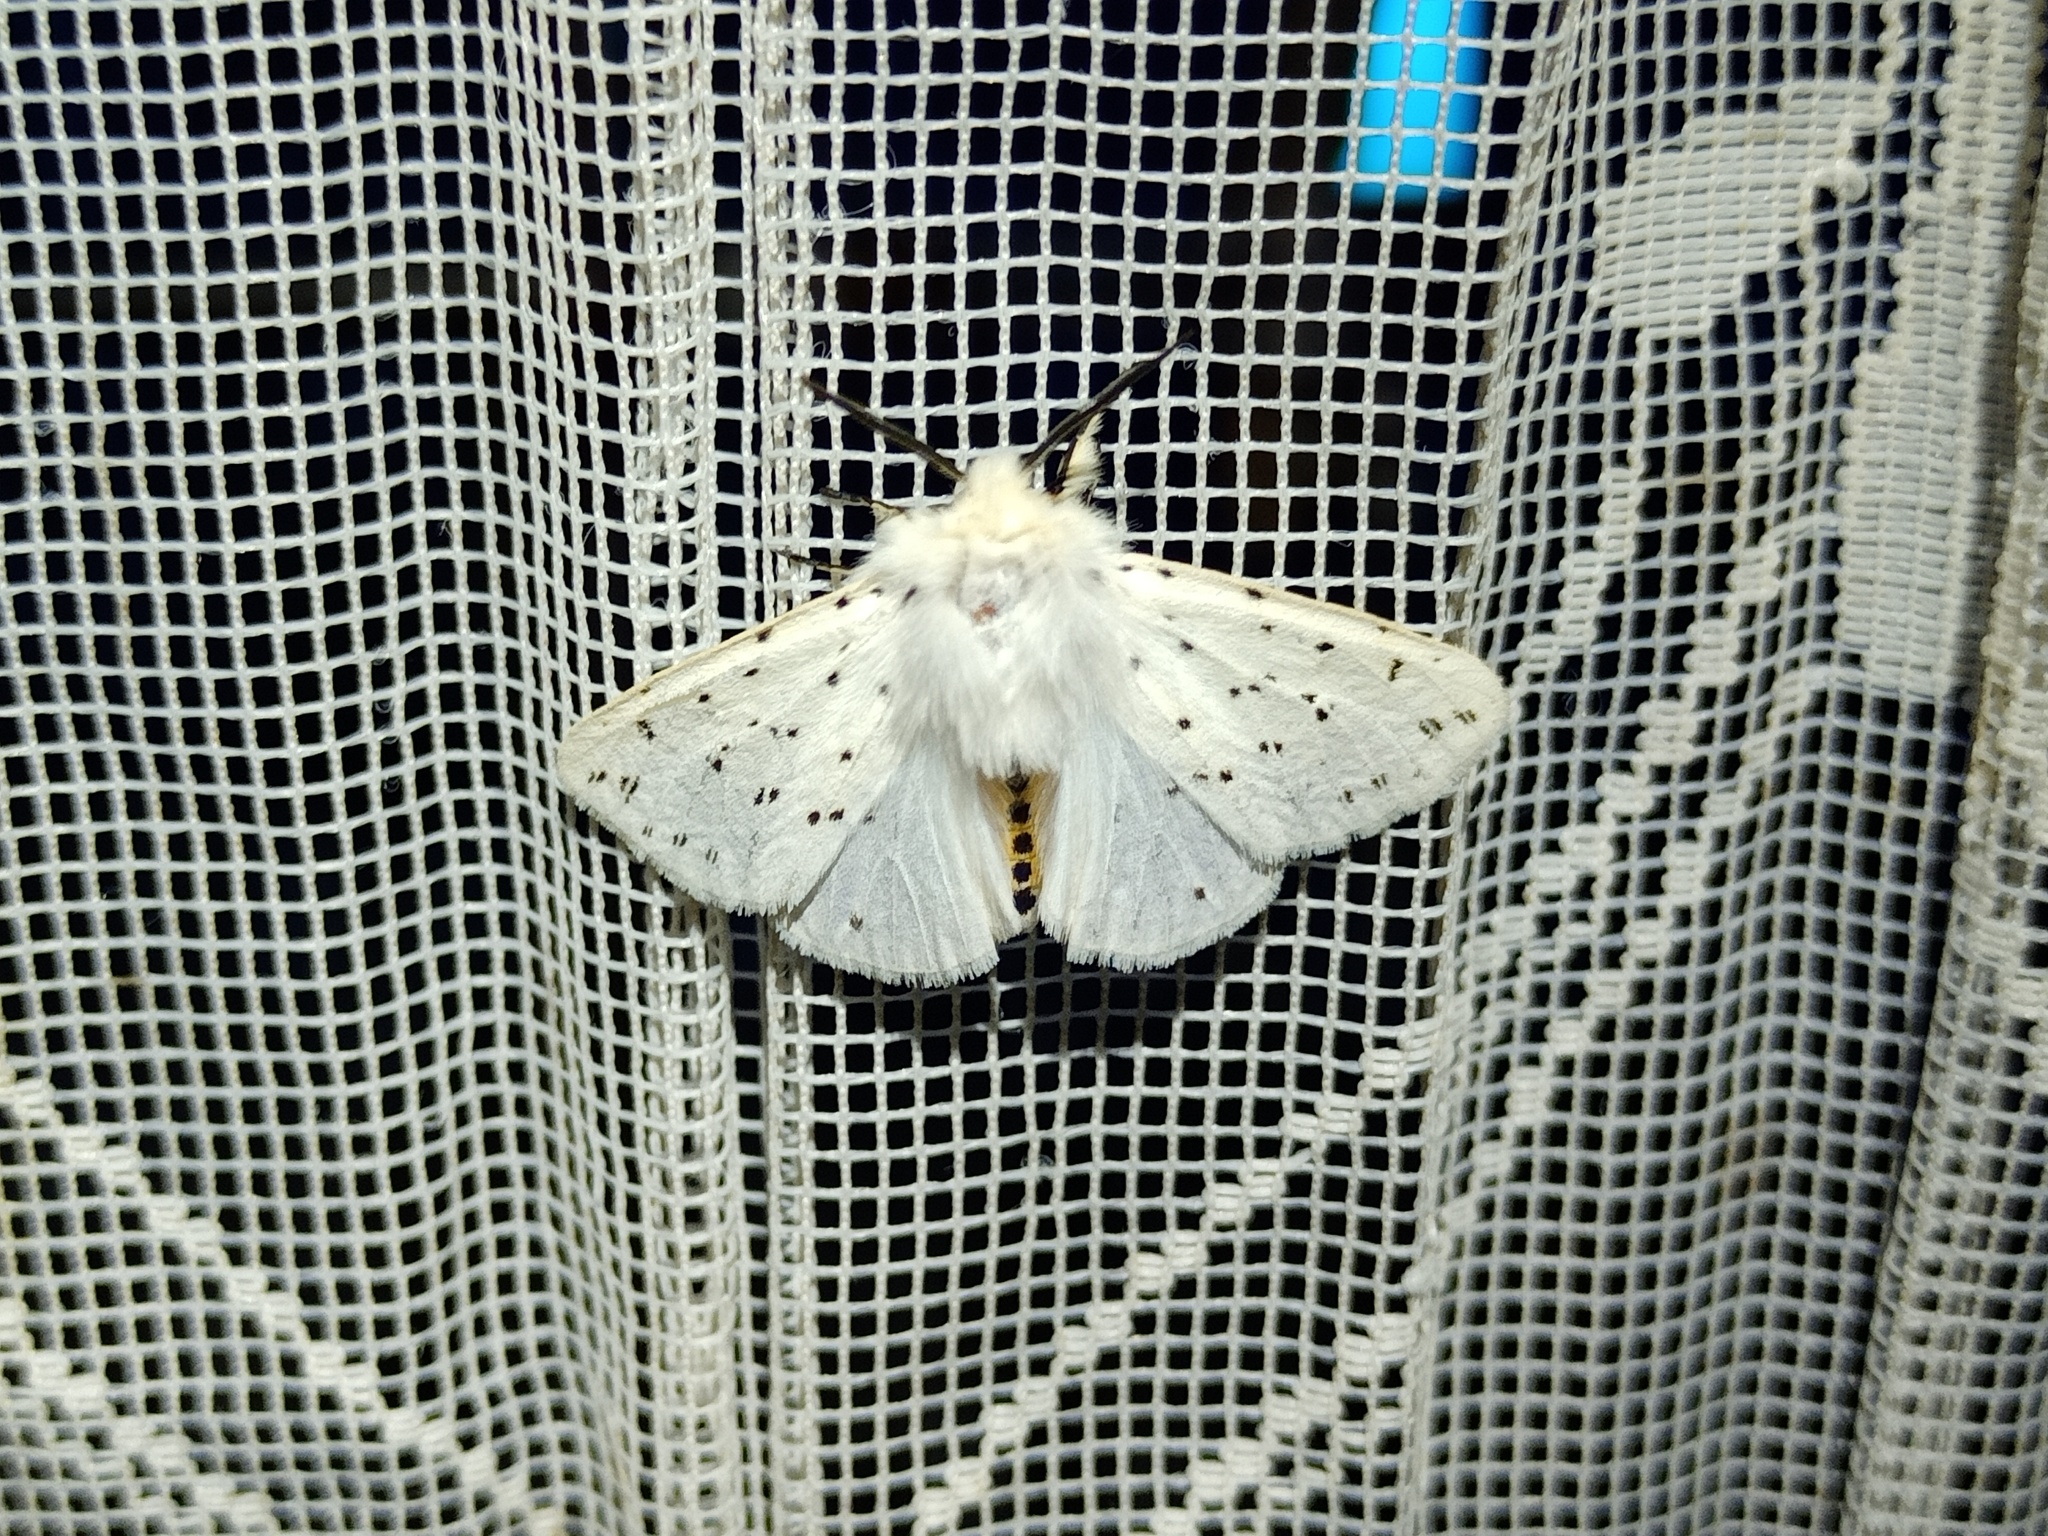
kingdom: Animalia
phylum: Arthropoda
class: Insecta
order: Lepidoptera
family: Erebidae
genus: Spilosoma
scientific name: Spilosoma lubricipeda
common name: White ermine
